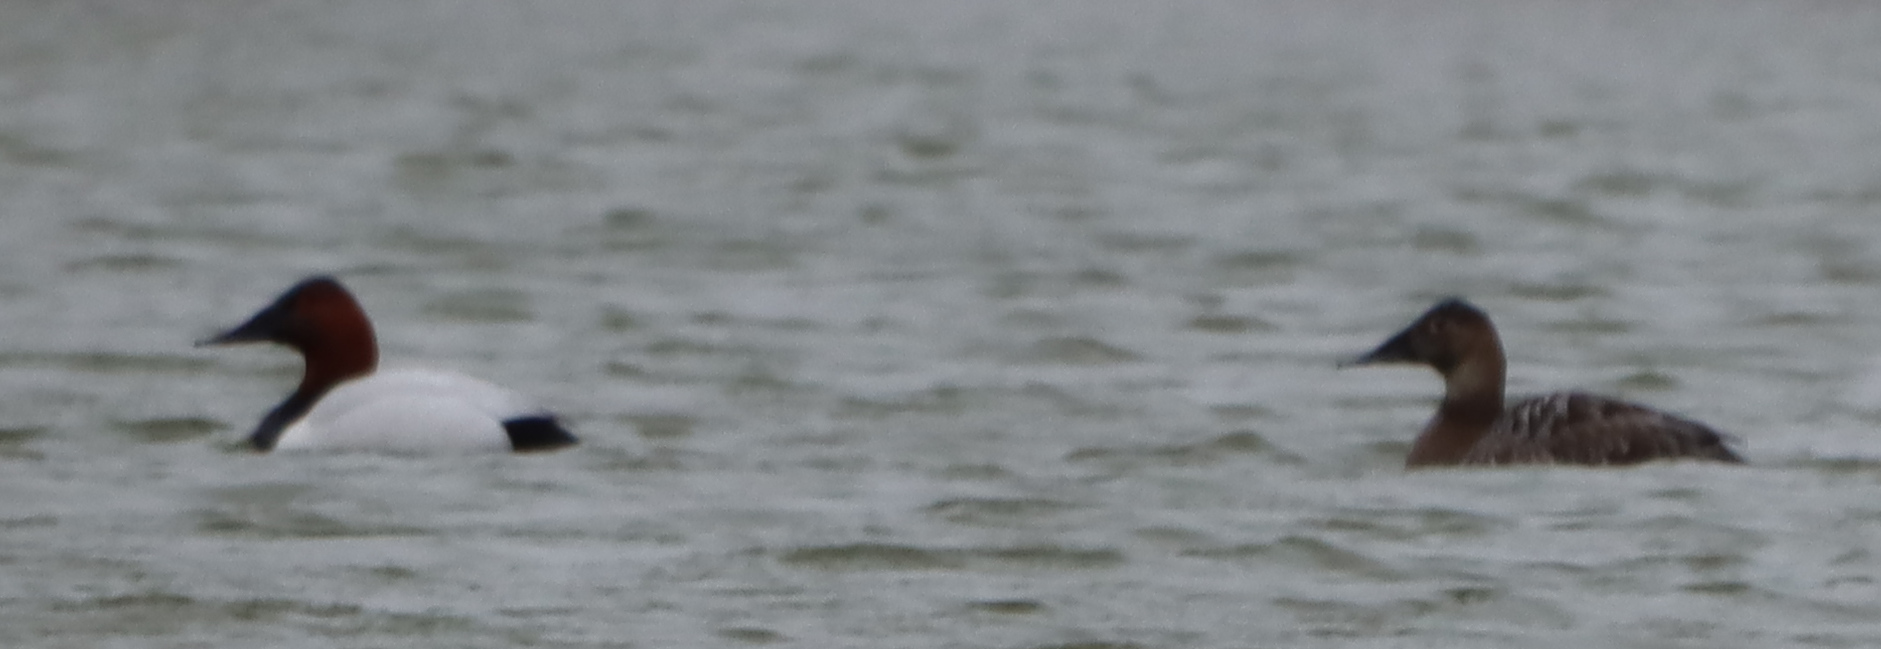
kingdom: Animalia
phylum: Chordata
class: Aves
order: Anseriformes
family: Anatidae
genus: Aythya
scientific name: Aythya valisineria
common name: Canvasback
